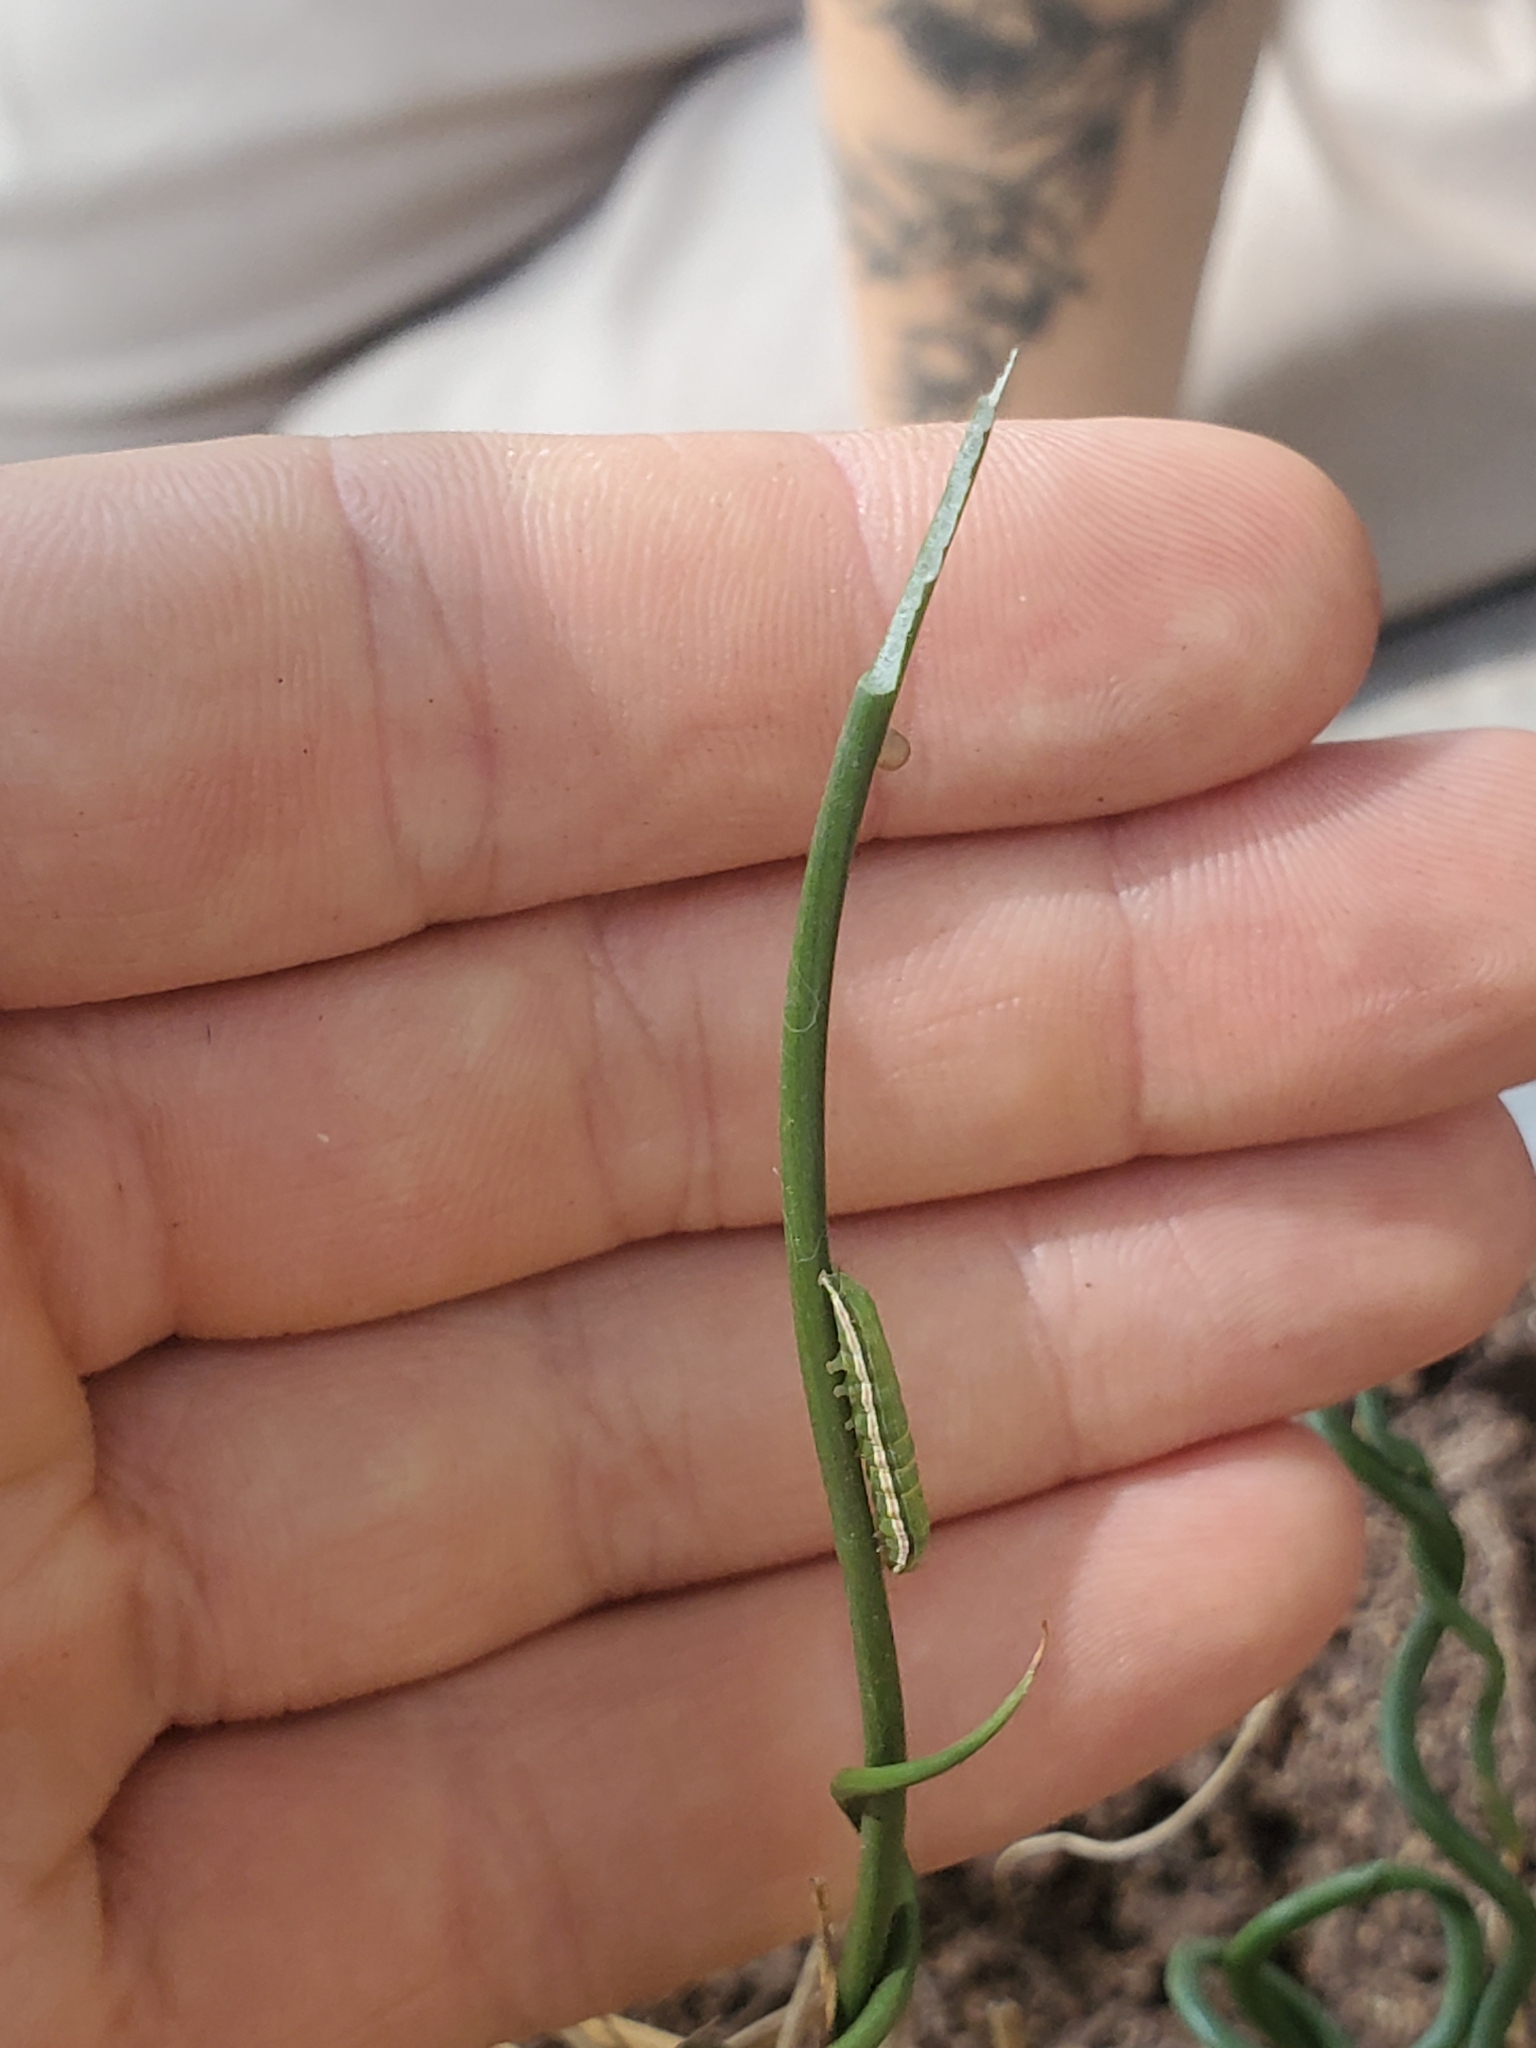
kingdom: Animalia
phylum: Arthropoda
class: Insecta
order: Lepidoptera
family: Noctuidae
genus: Condica
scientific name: Condica videns
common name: White-dotted groundling
